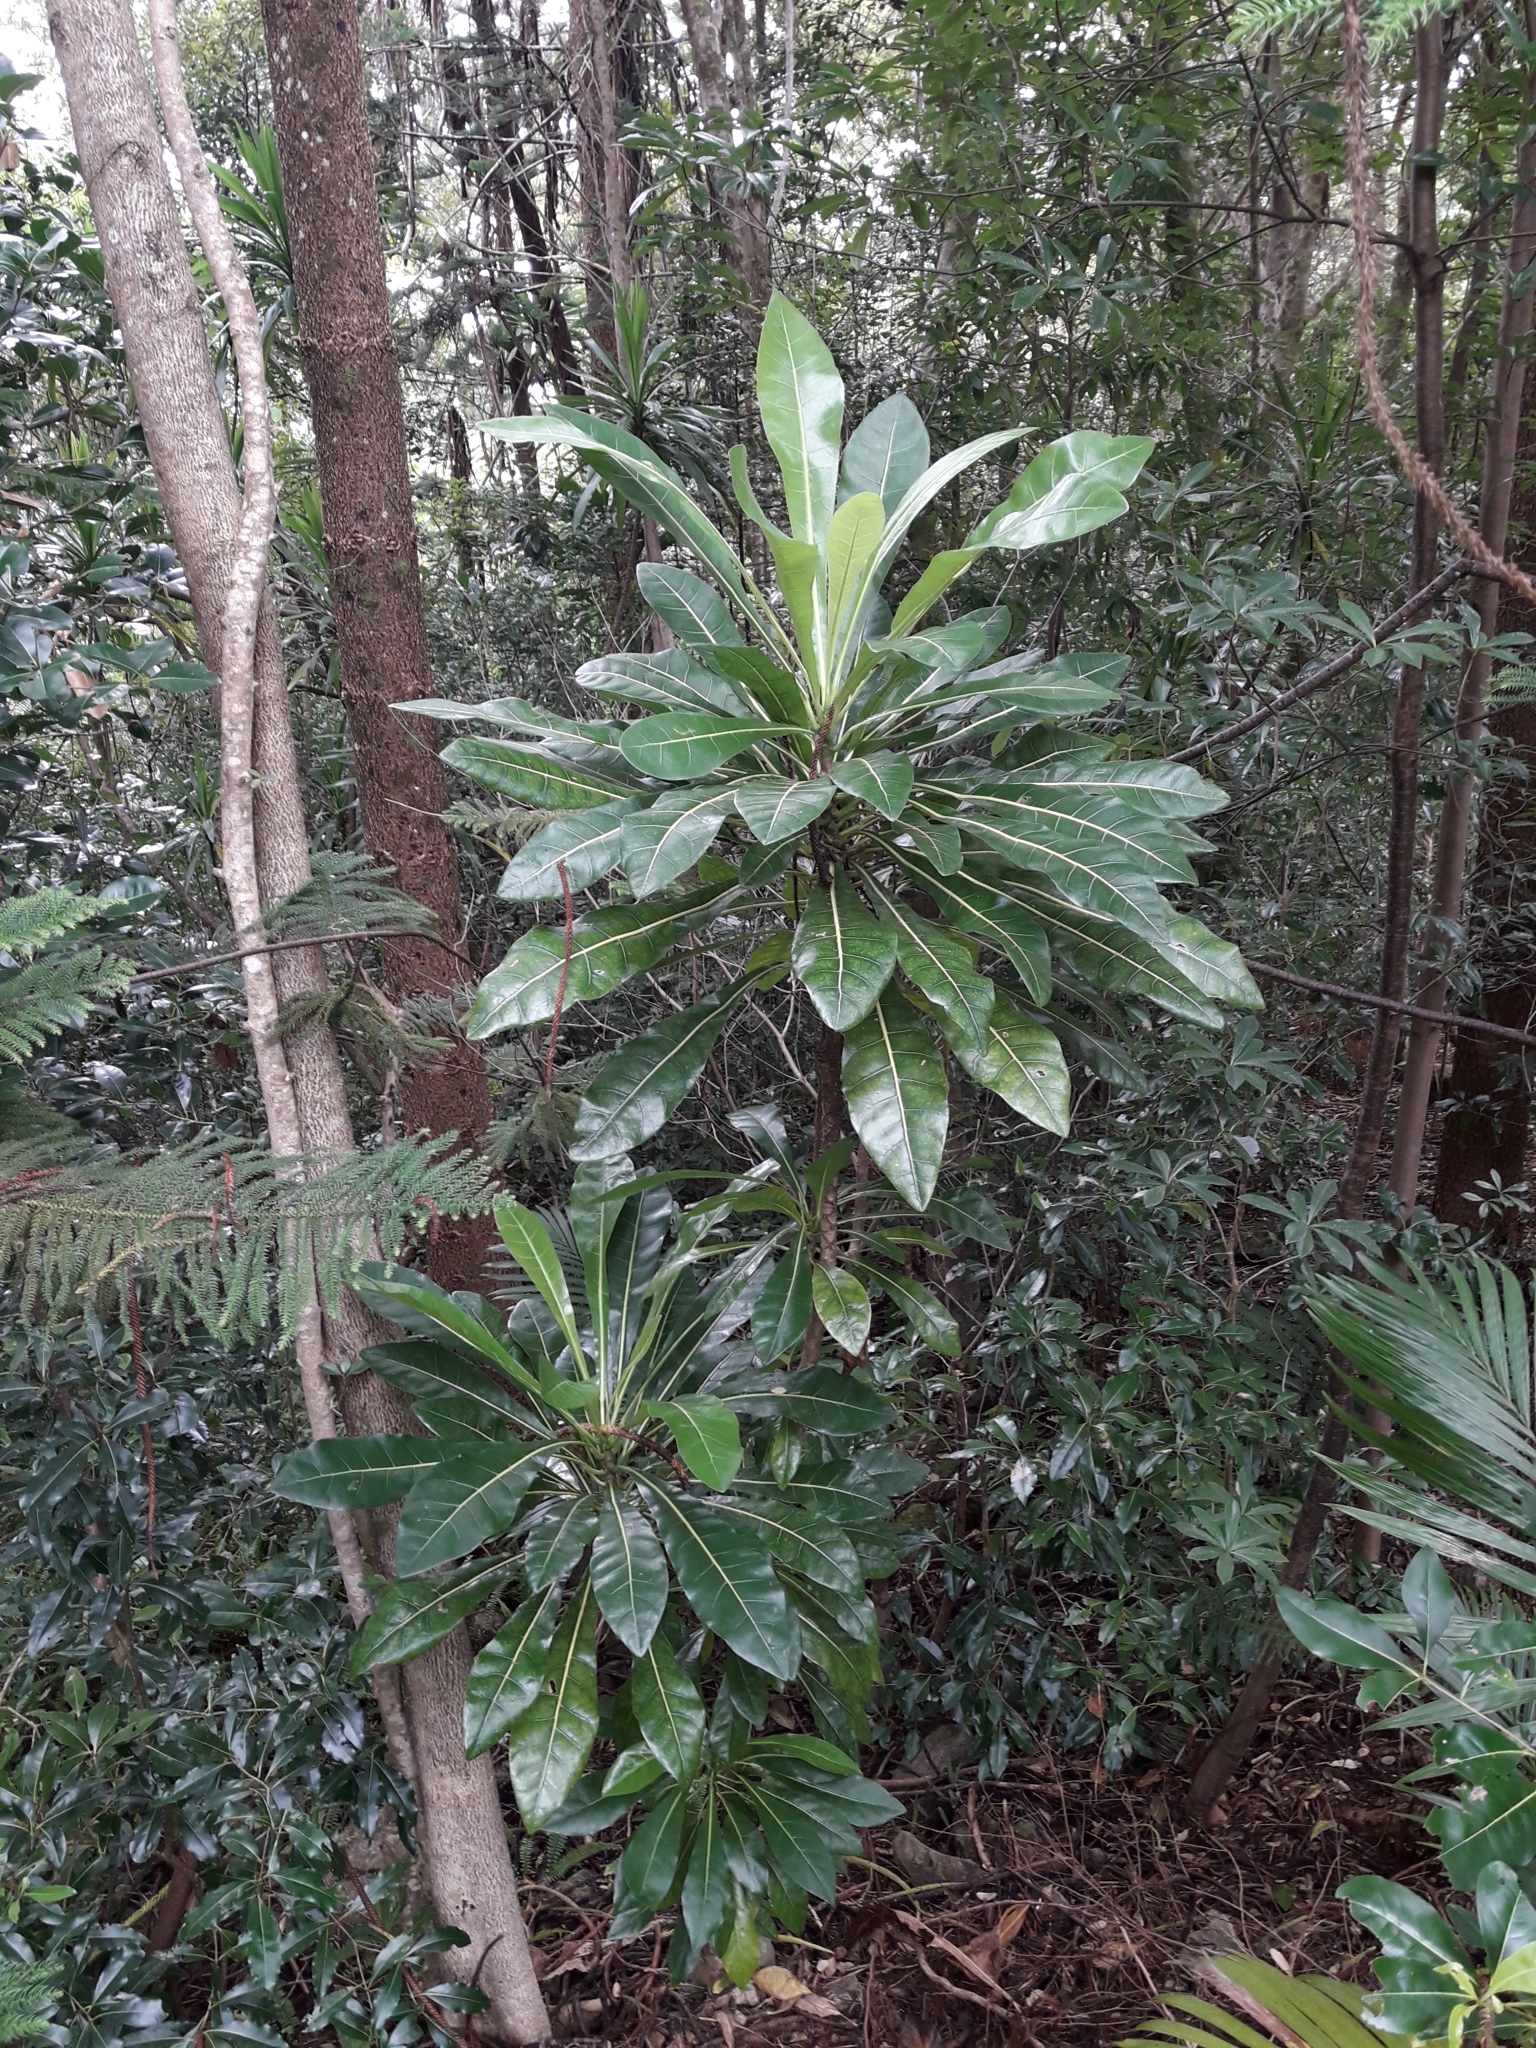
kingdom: Plantae
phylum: Tracheophyta
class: Magnoliopsida
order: Apiales
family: Araliaceae
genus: Meryta
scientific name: Meryta latifolia
